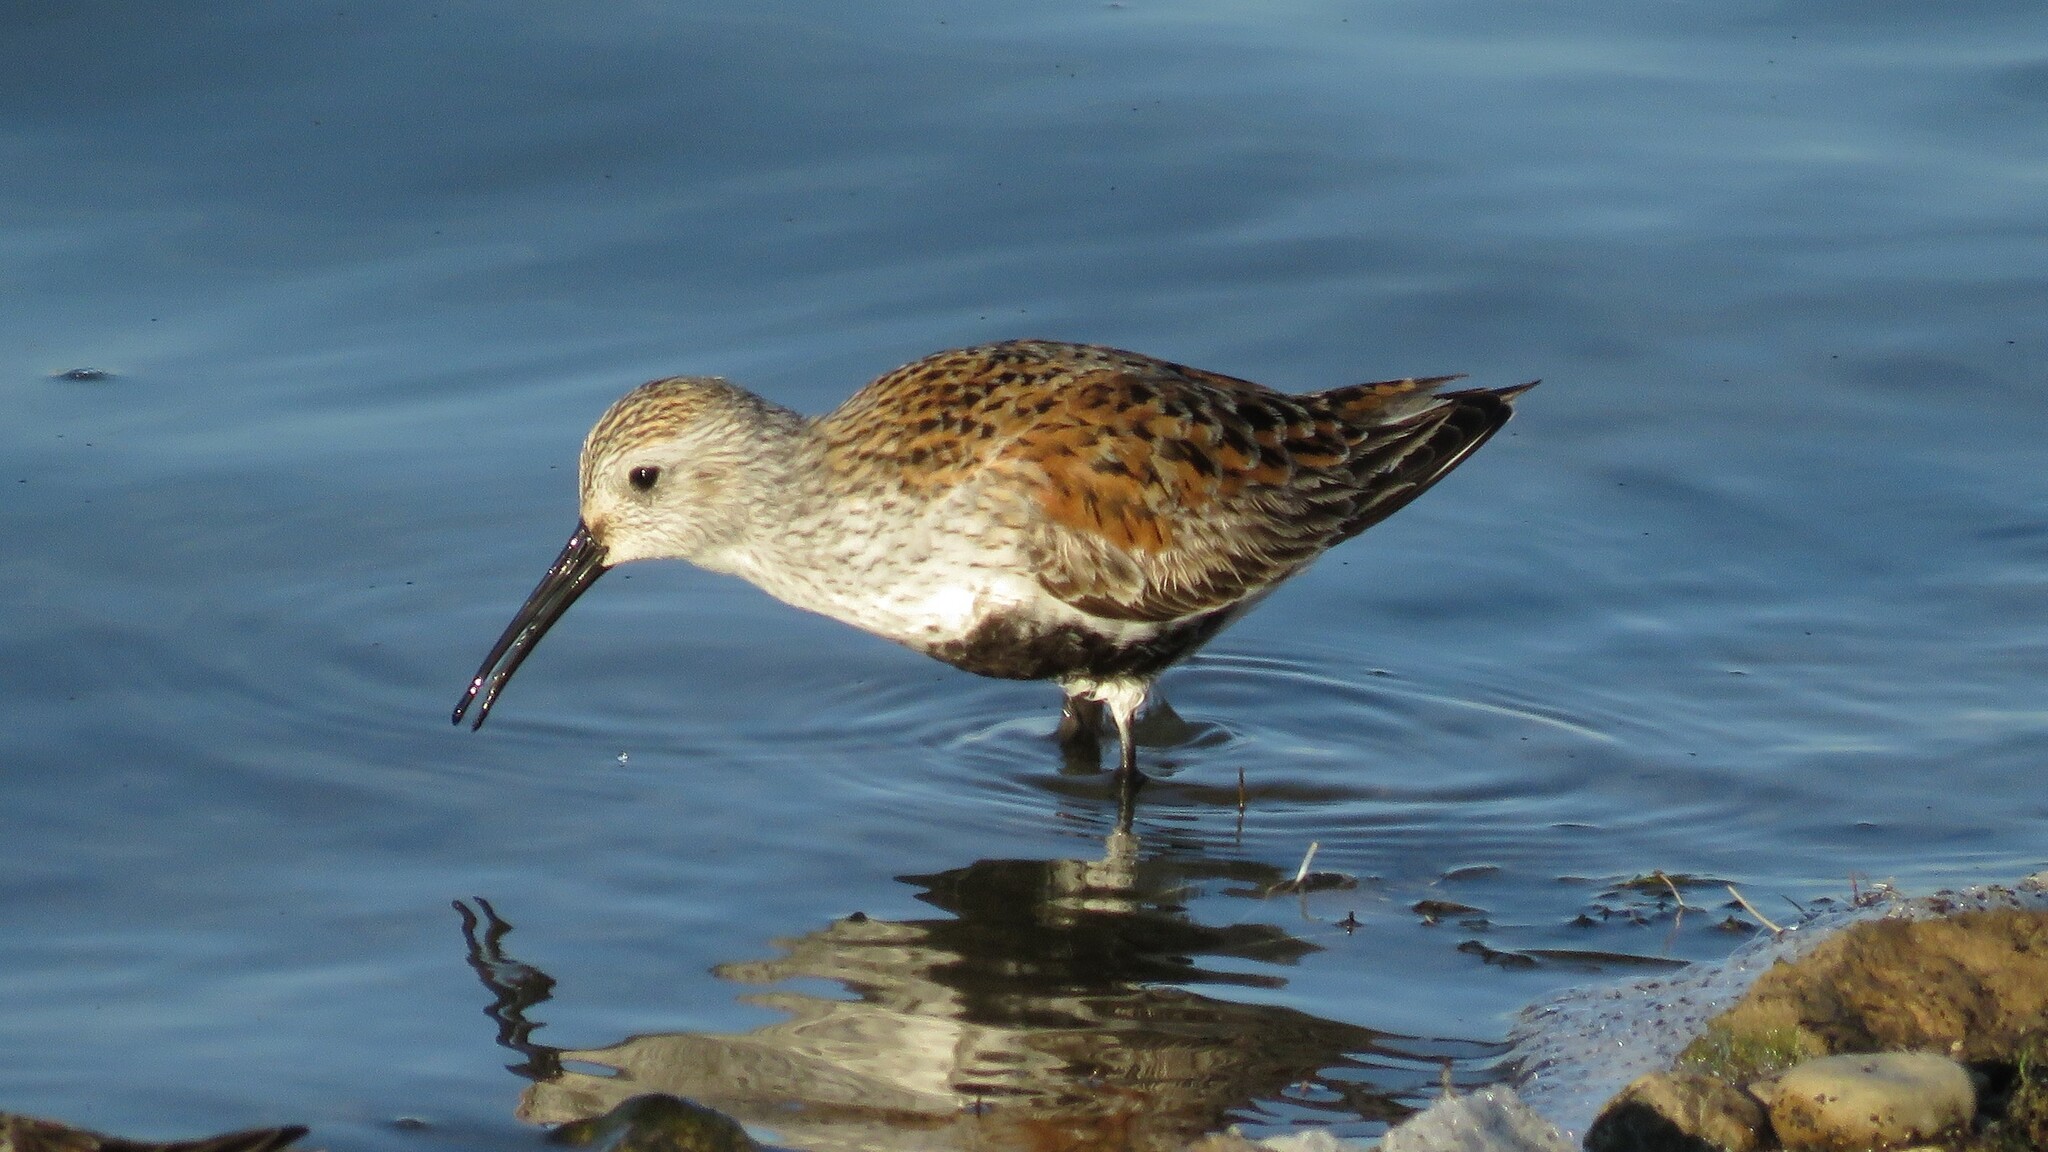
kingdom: Animalia
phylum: Chordata
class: Aves
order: Charadriiformes
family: Scolopacidae
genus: Calidris
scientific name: Calidris alpina
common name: Dunlin
